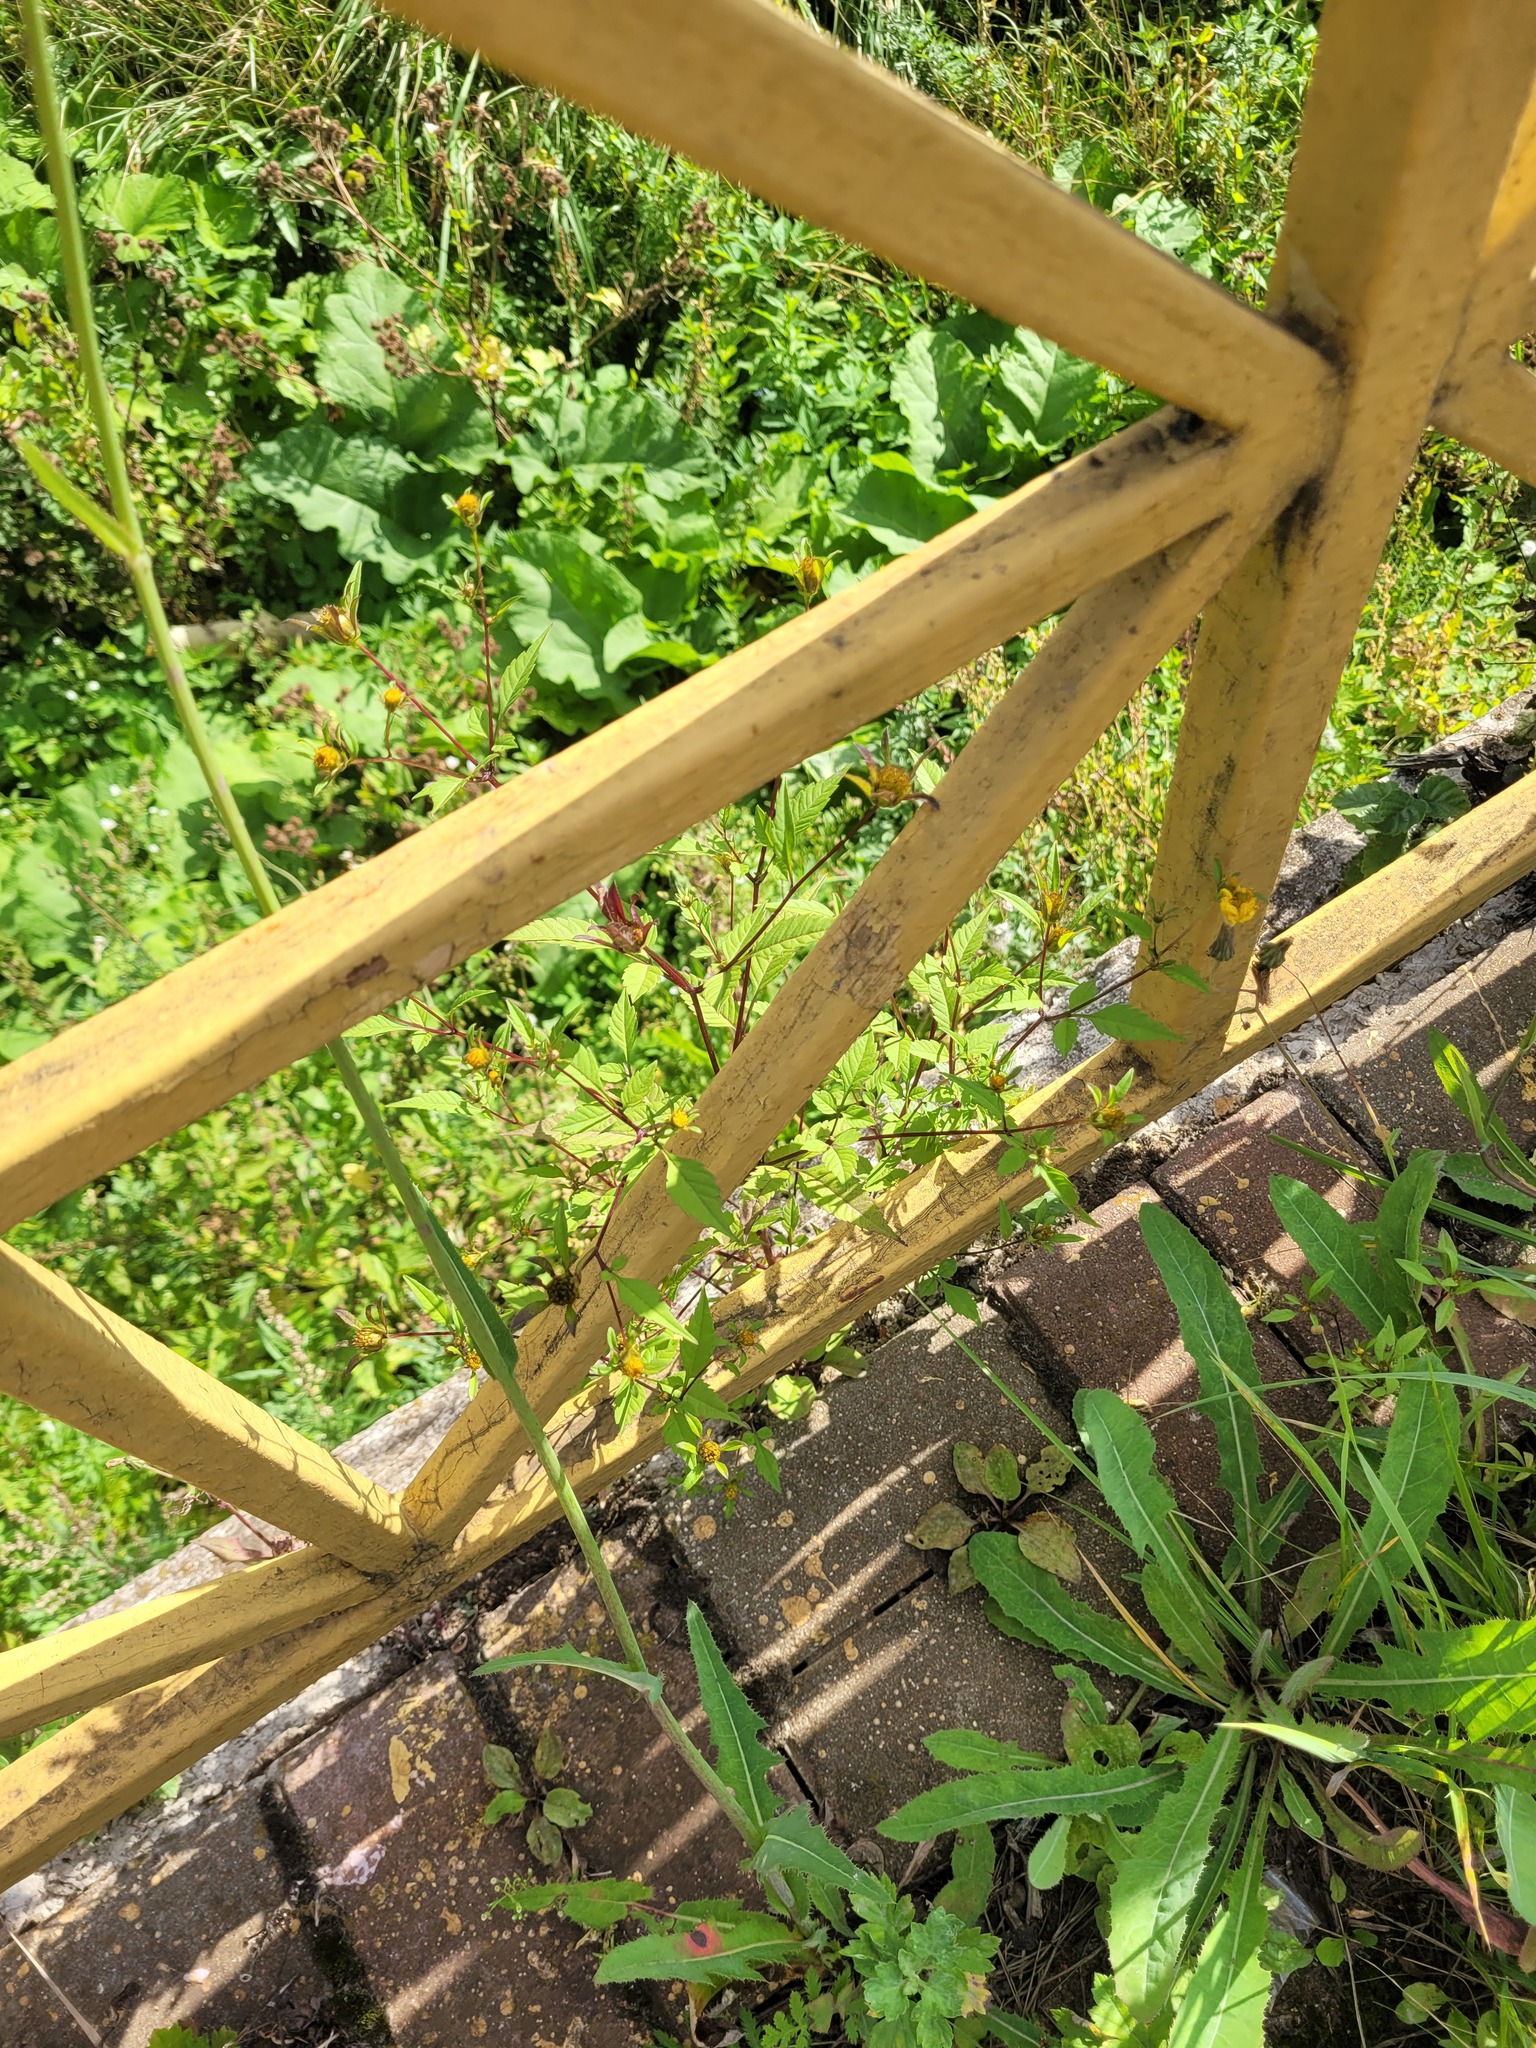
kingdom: Plantae
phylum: Tracheophyta
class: Magnoliopsida
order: Asterales
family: Asteraceae
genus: Bidens
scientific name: Bidens frondosa
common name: Beggarticks
